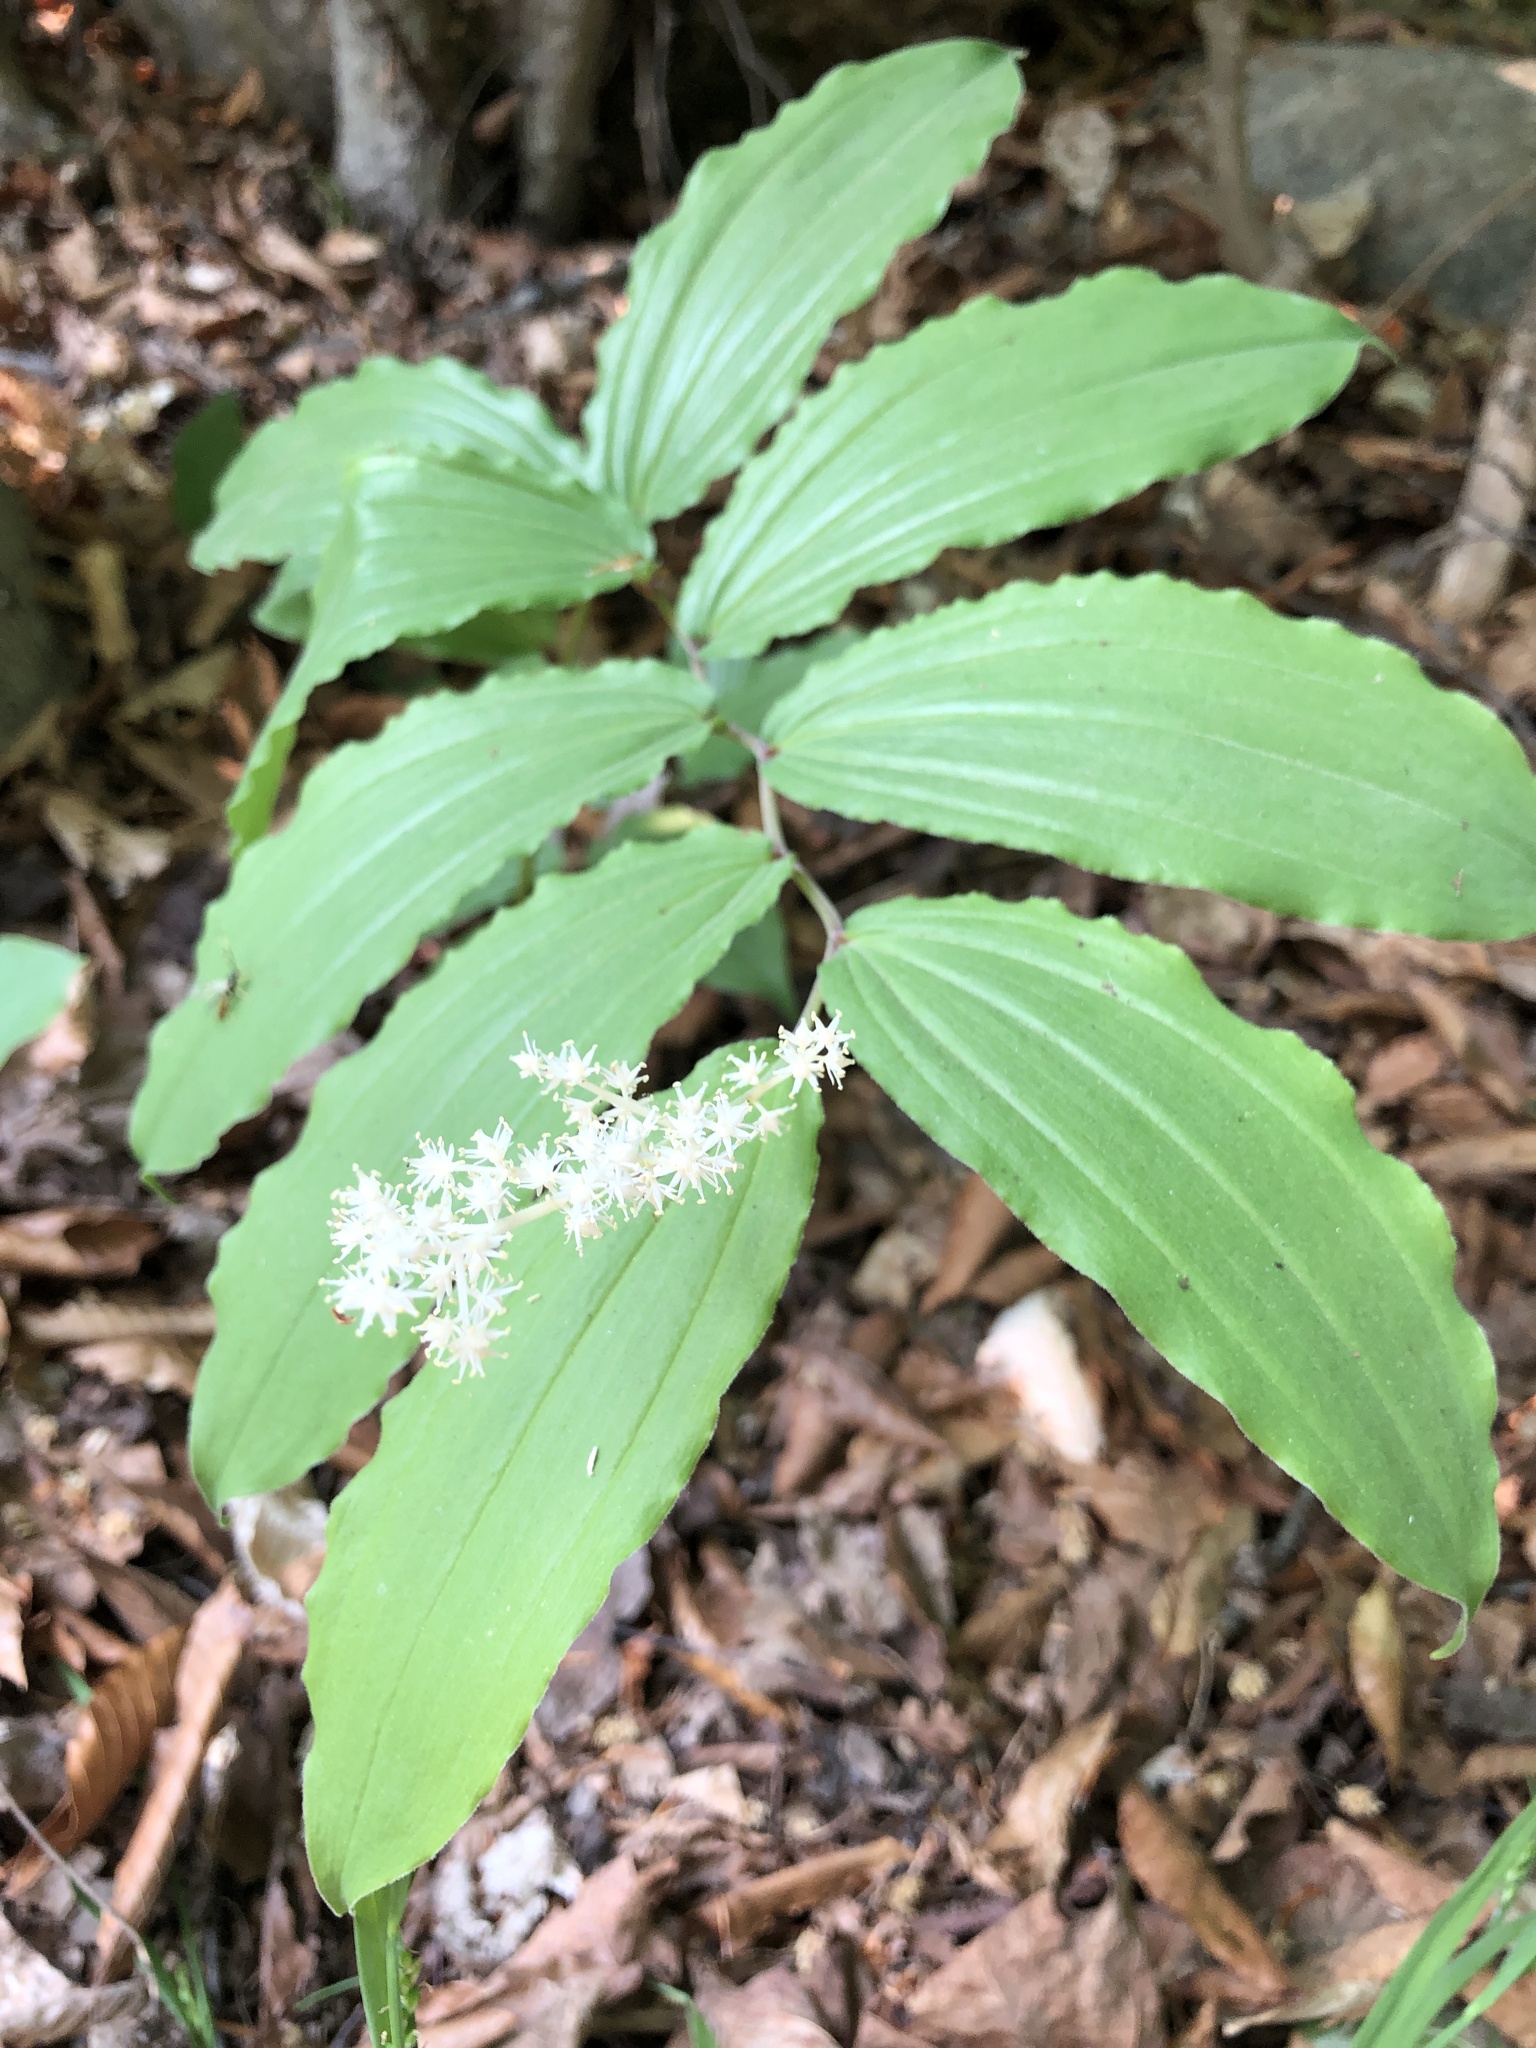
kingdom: Plantae
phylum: Tracheophyta
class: Liliopsida
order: Asparagales
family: Asparagaceae
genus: Maianthemum
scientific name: Maianthemum racemosum
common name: False spikenard
